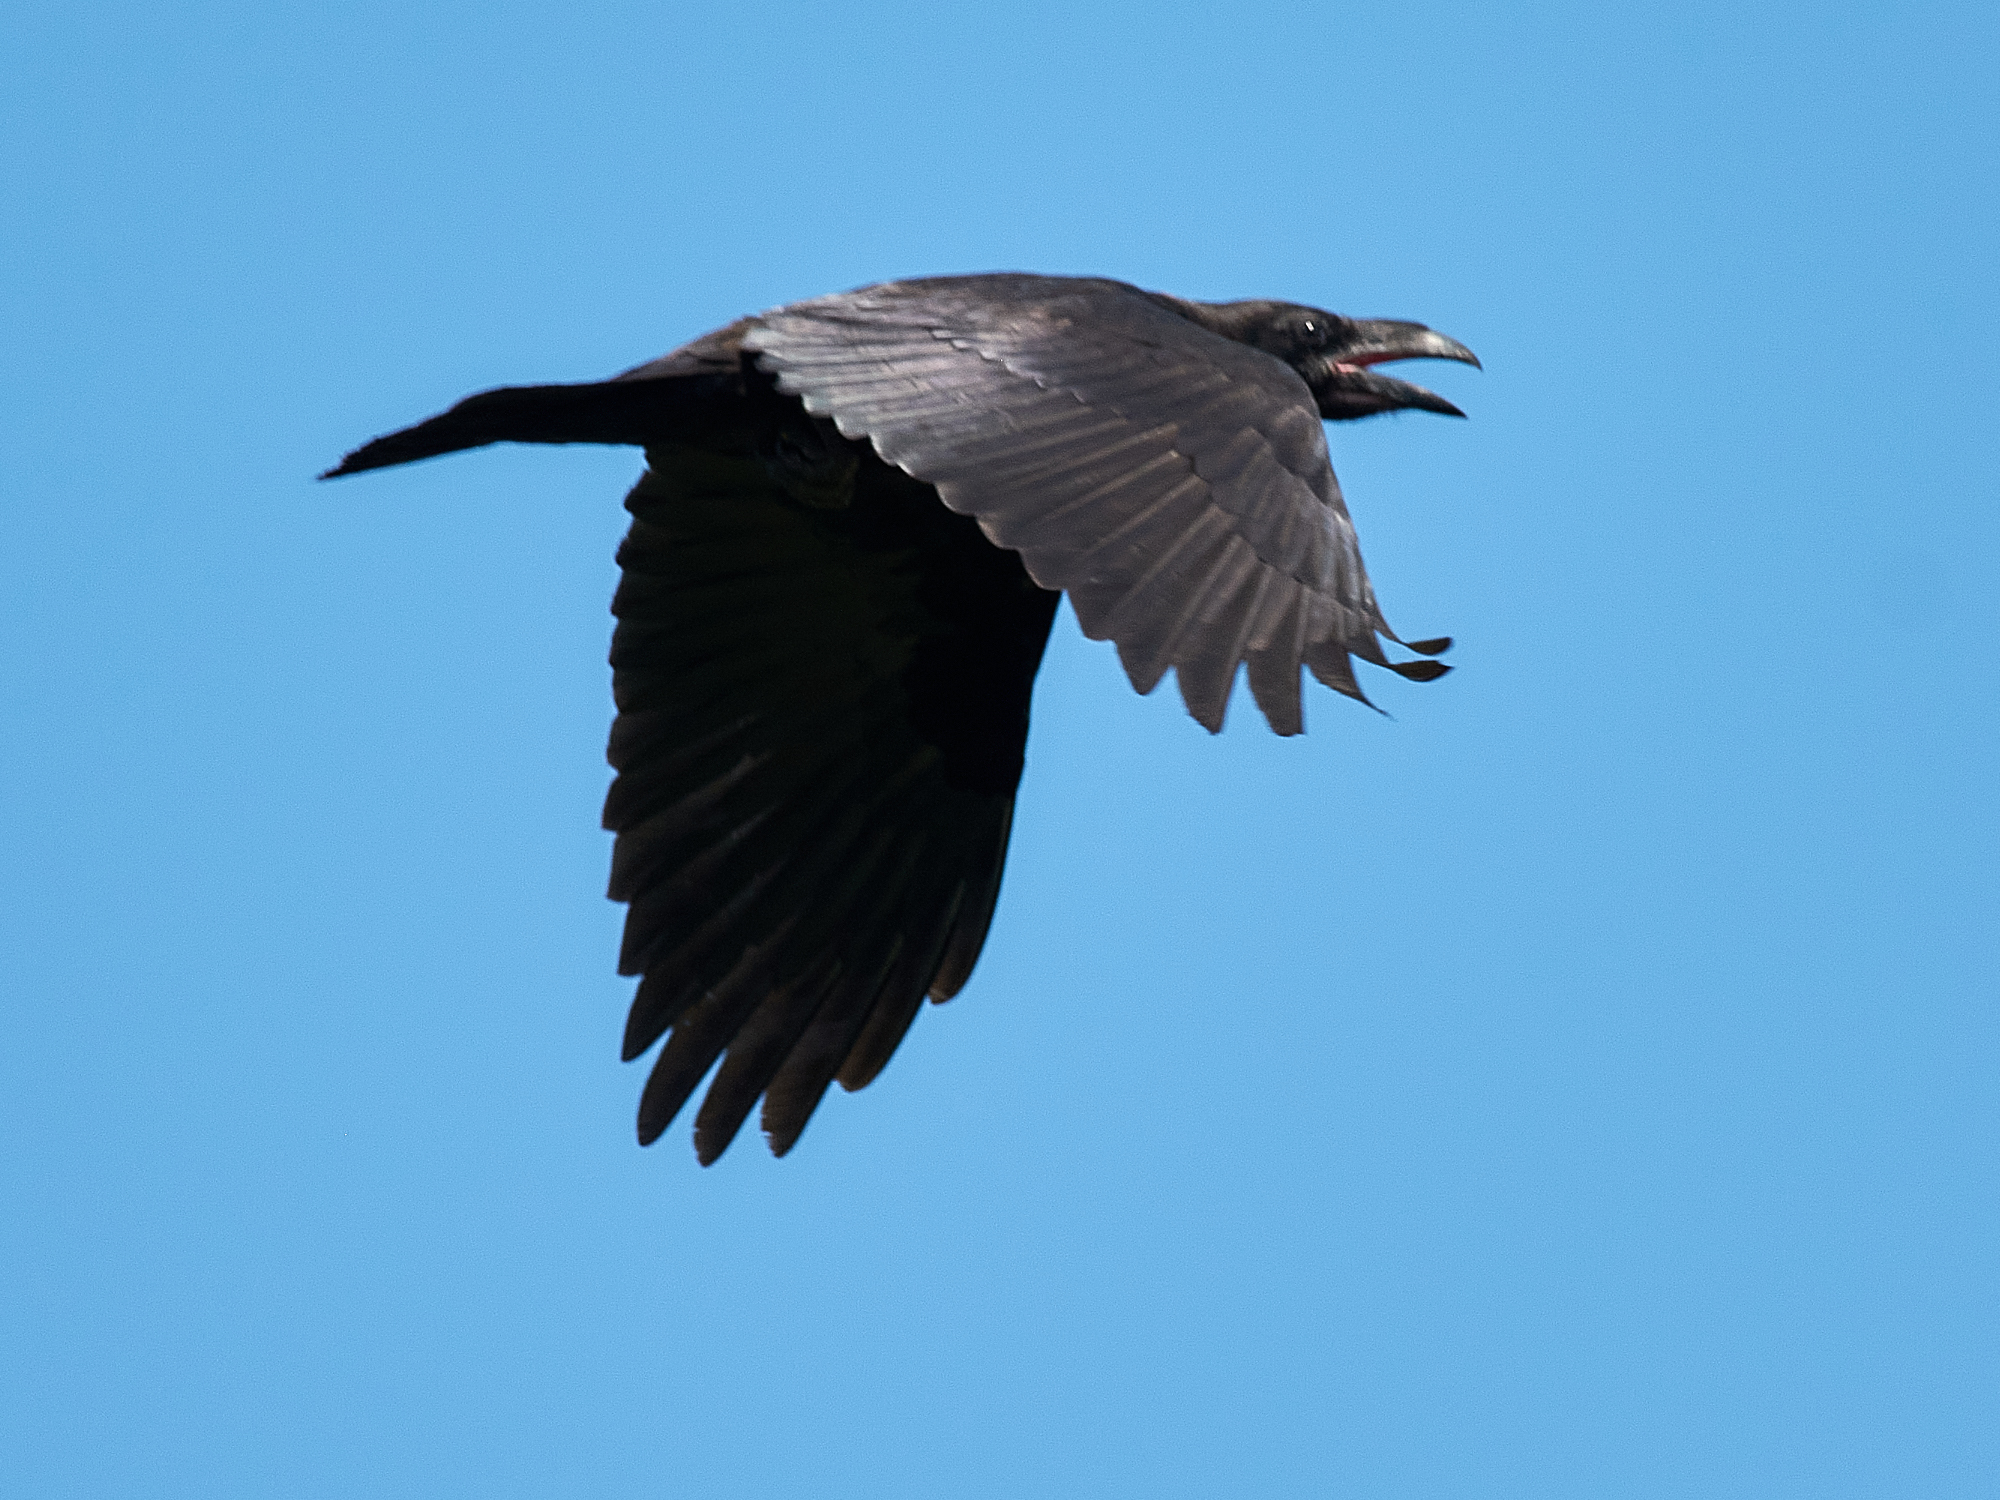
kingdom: Animalia
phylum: Chordata
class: Aves
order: Passeriformes
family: Corvidae
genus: Corvus
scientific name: Corvus corax
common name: Common raven
